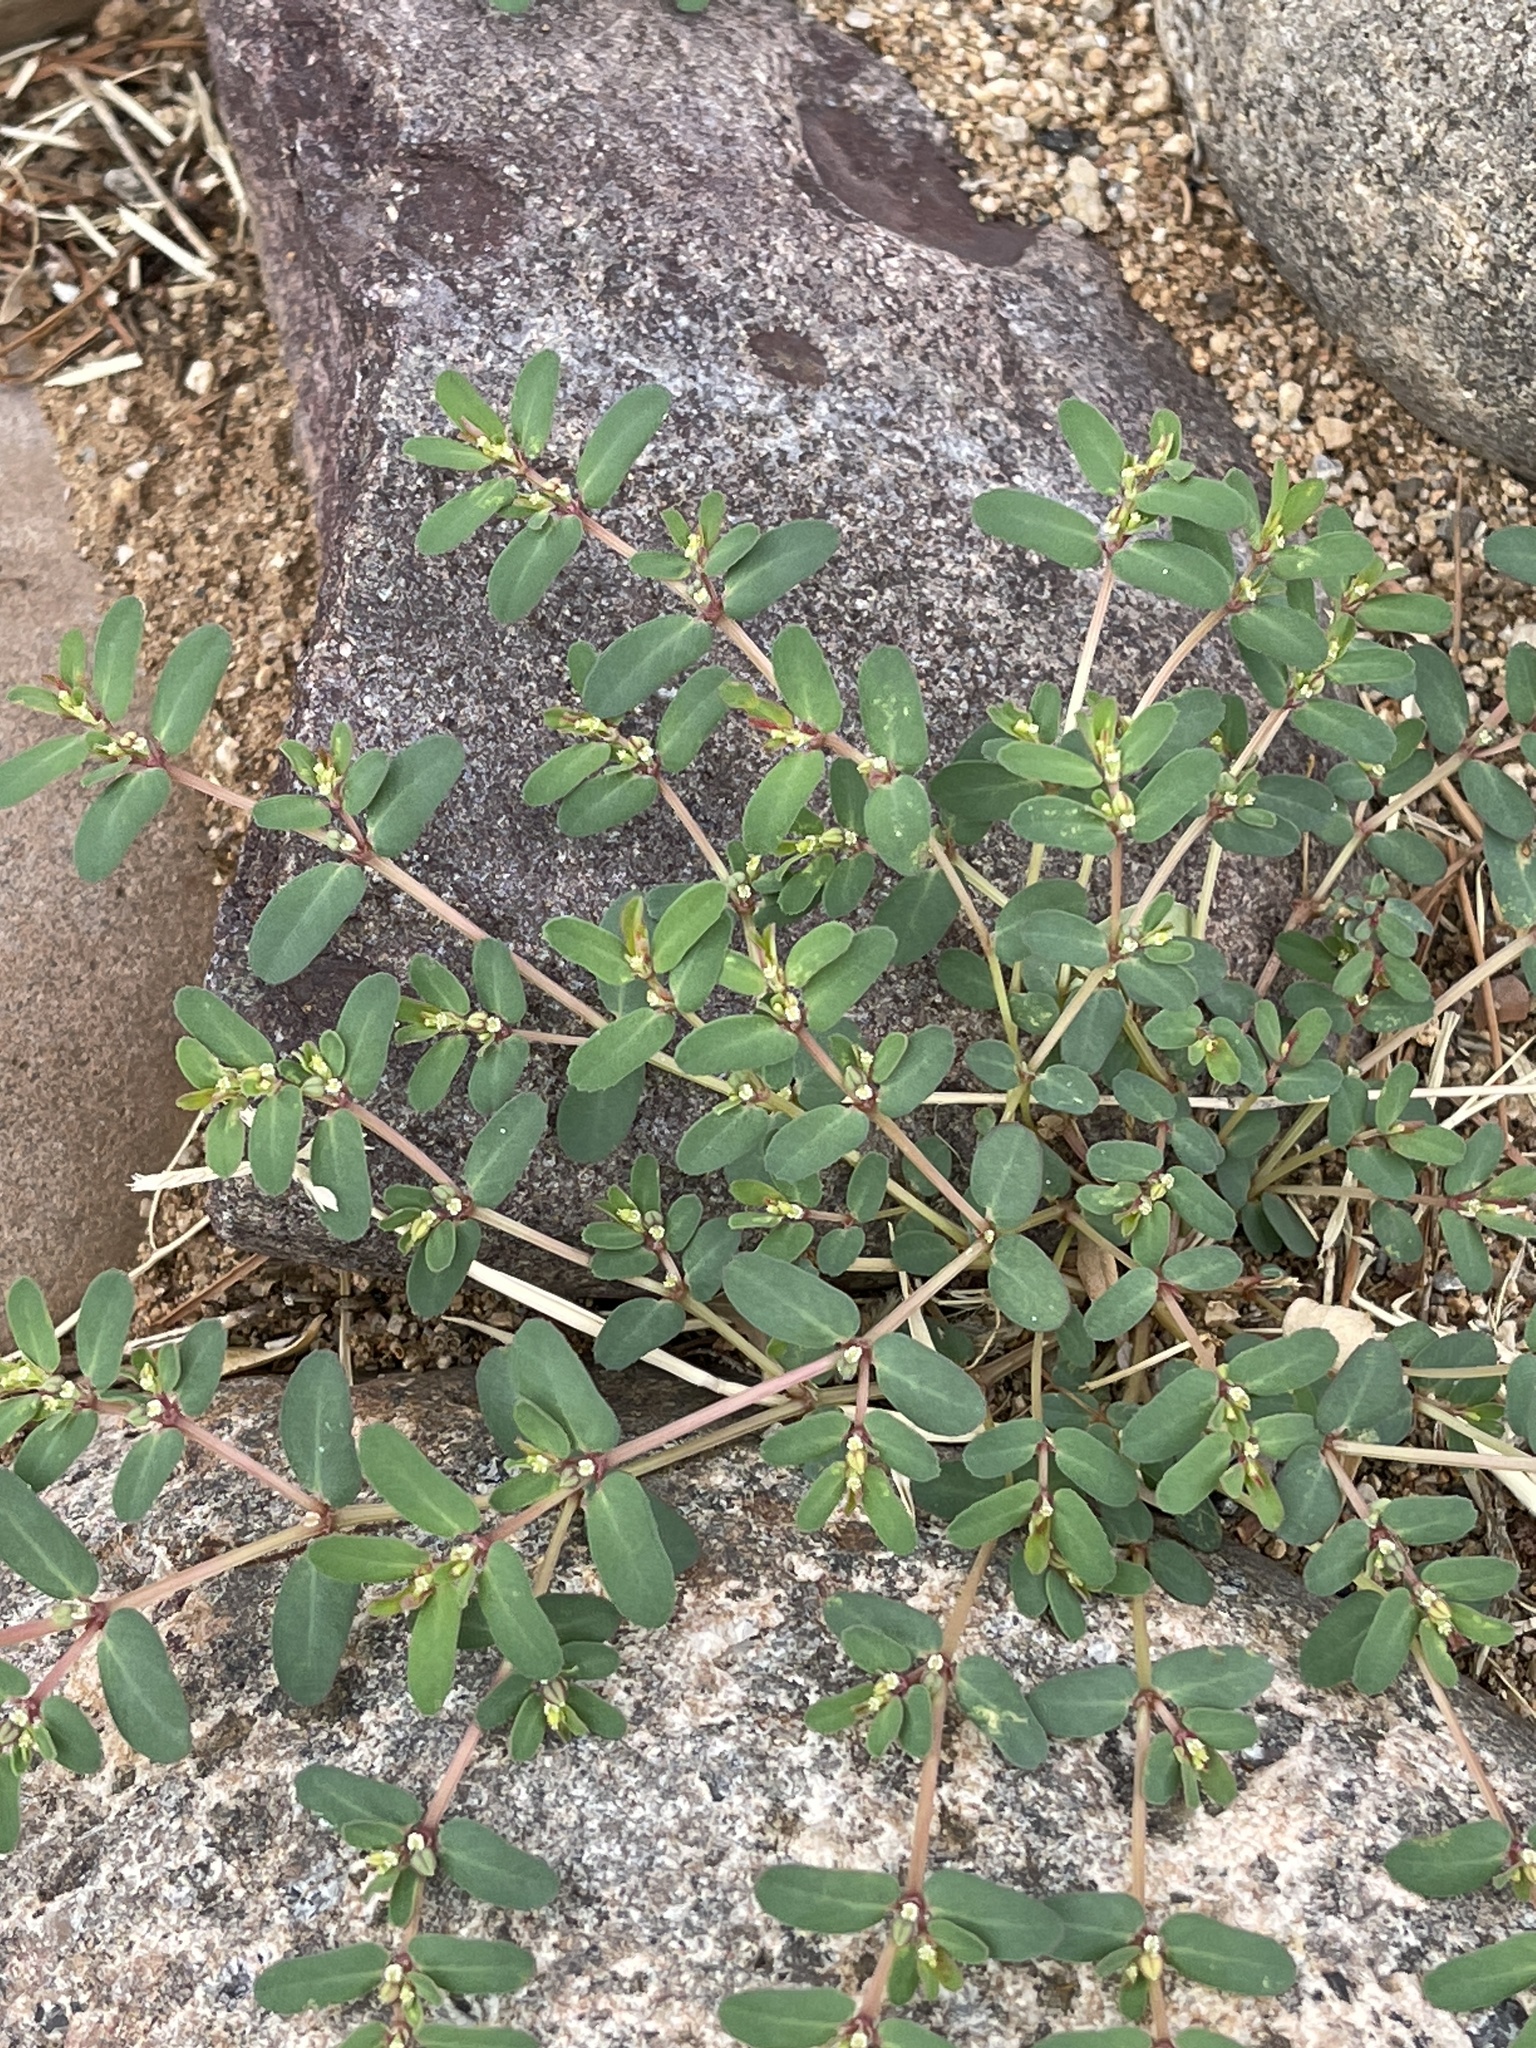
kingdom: Plantae
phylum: Tracheophyta
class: Magnoliopsida
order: Malpighiales
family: Euphorbiaceae
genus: Euphorbia
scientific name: Euphorbia serpillifolia
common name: Thyme-leaf spurge
